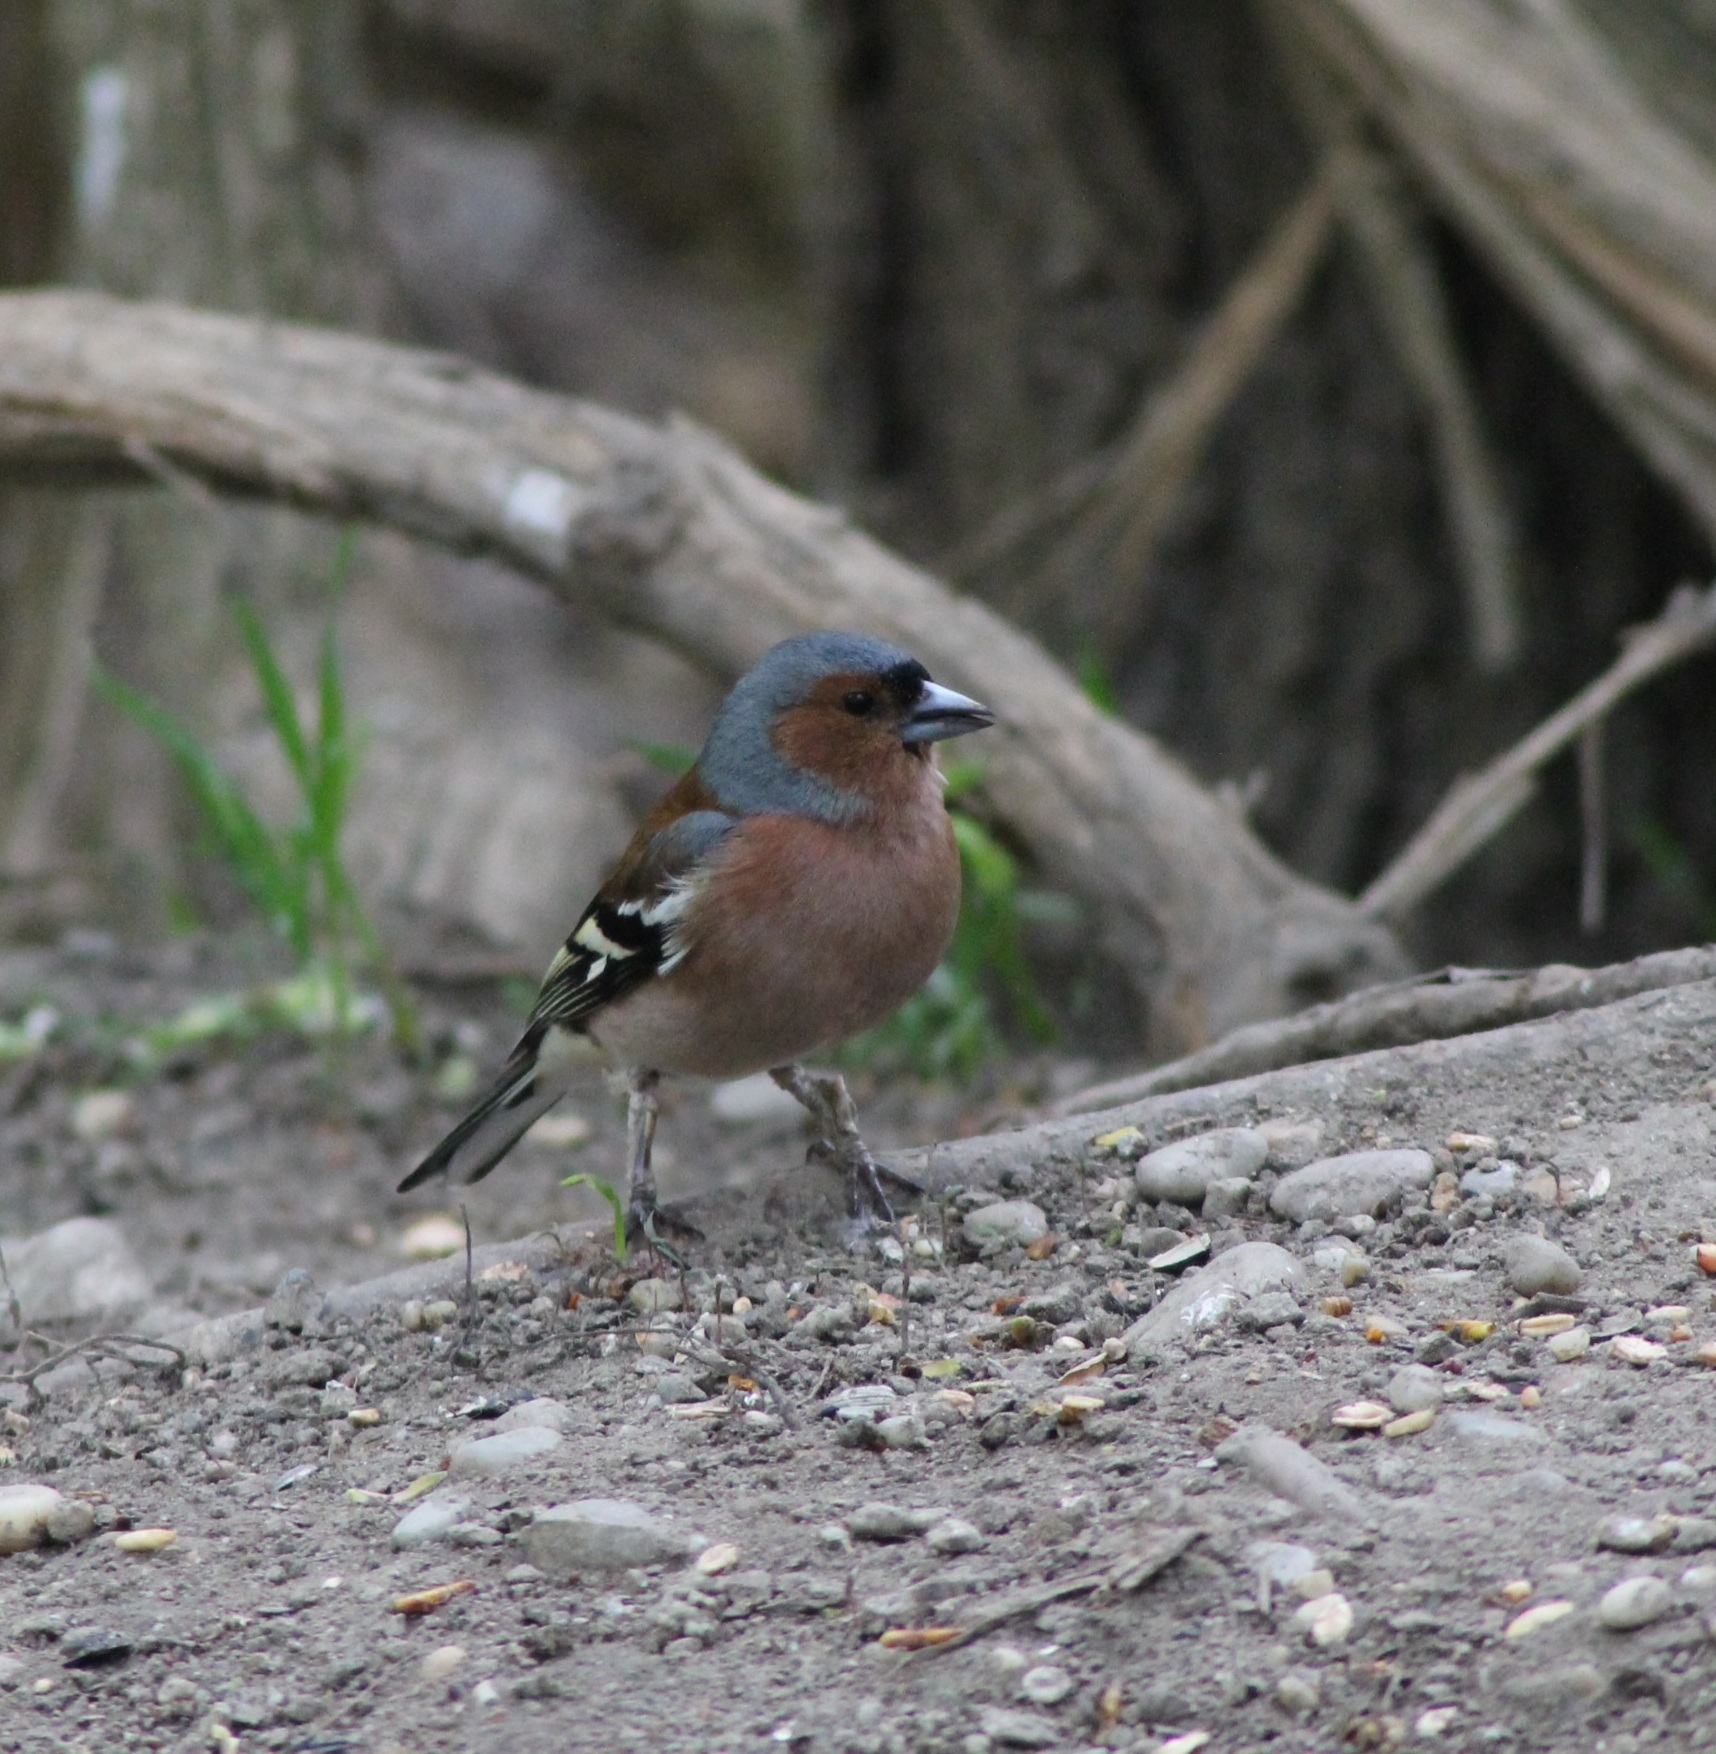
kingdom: Animalia
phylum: Chordata
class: Aves
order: Passeriformes
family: Fringillidae
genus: Fringilla
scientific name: Fringilla coelebs
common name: Common chaffinch
